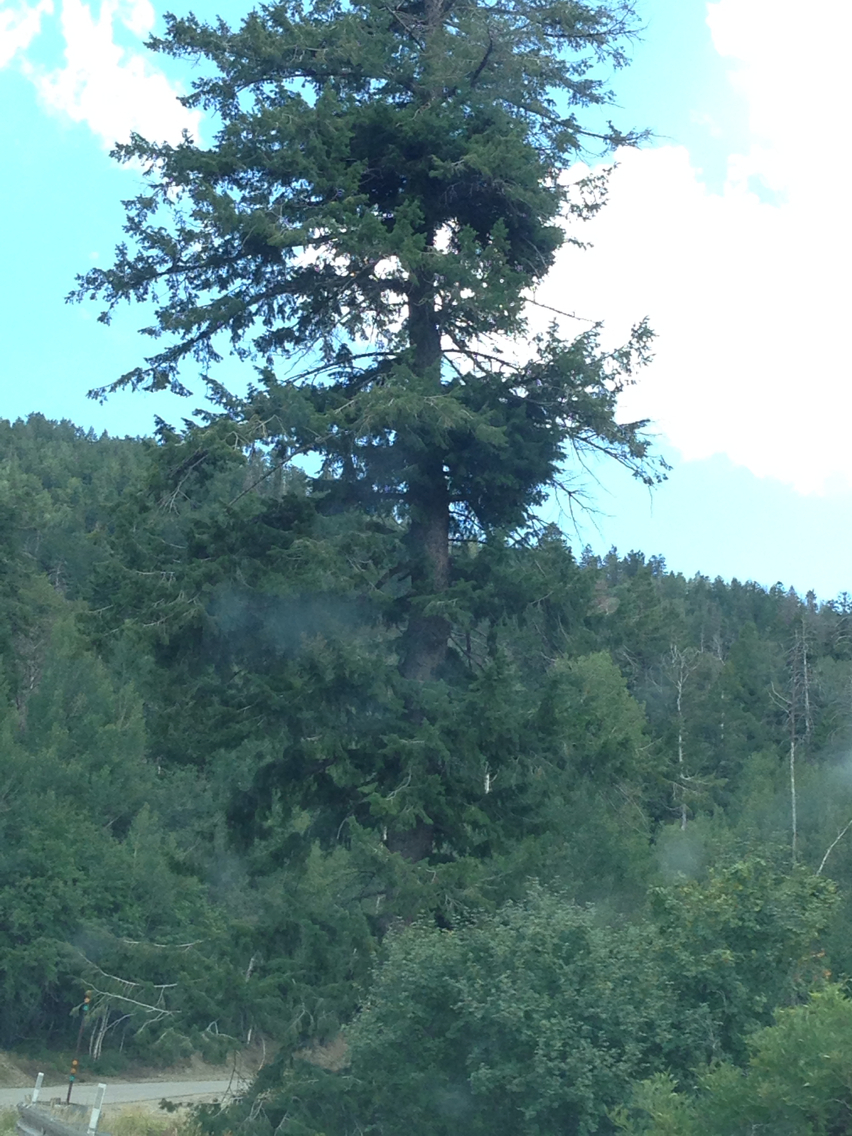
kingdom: Plantae
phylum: Tracheophyta
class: Pinopsida
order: Pinales
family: Pinaceae
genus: Pseudotsuga
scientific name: Pseudotsuga menziesii
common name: Douglas fir
